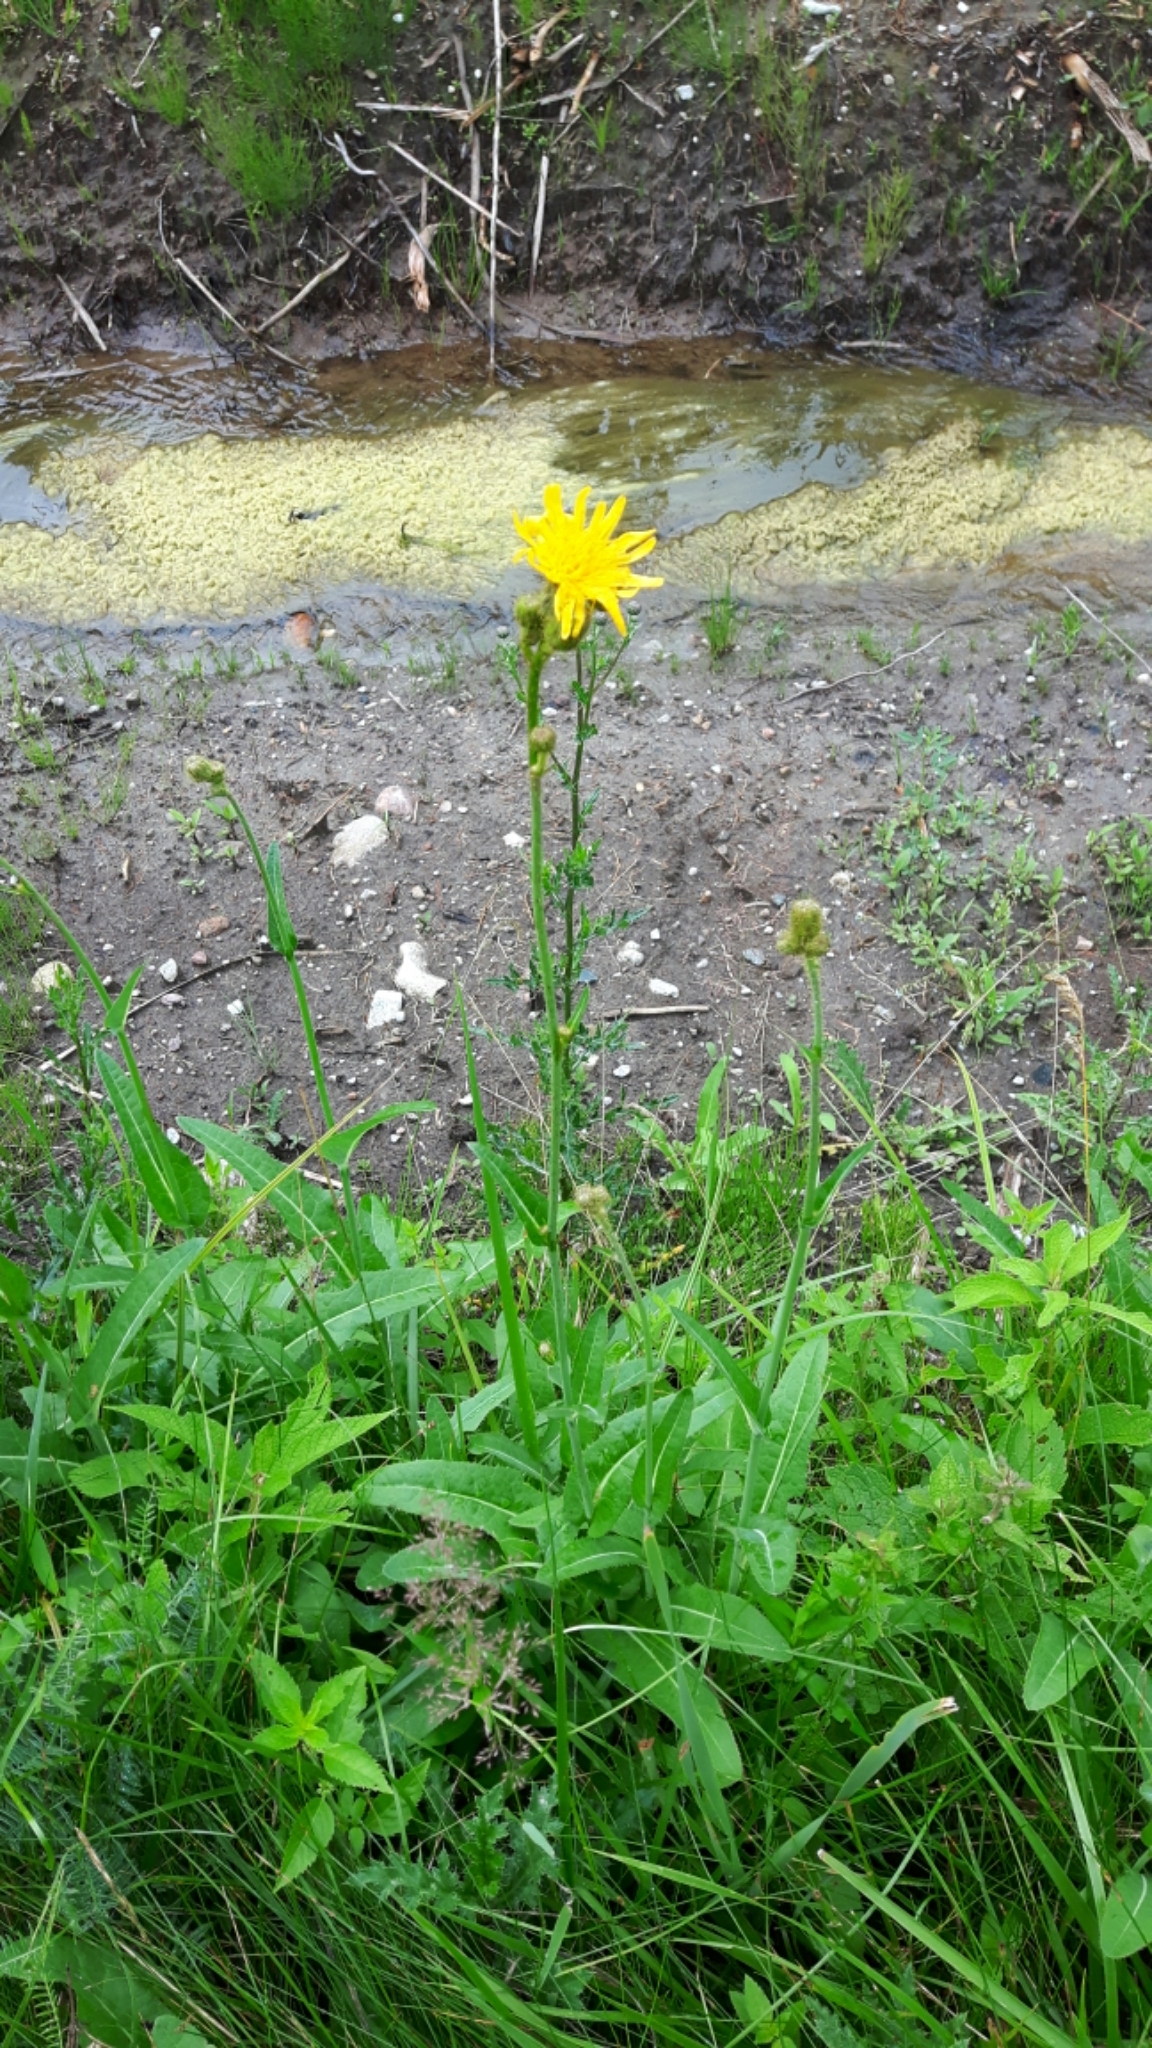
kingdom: Plantae
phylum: Tracheophyta
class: Magnoliopsida
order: Asterales
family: Asteraceae
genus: Sonchus
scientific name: Sonchus arvensis
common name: Perennial sow-thistle
